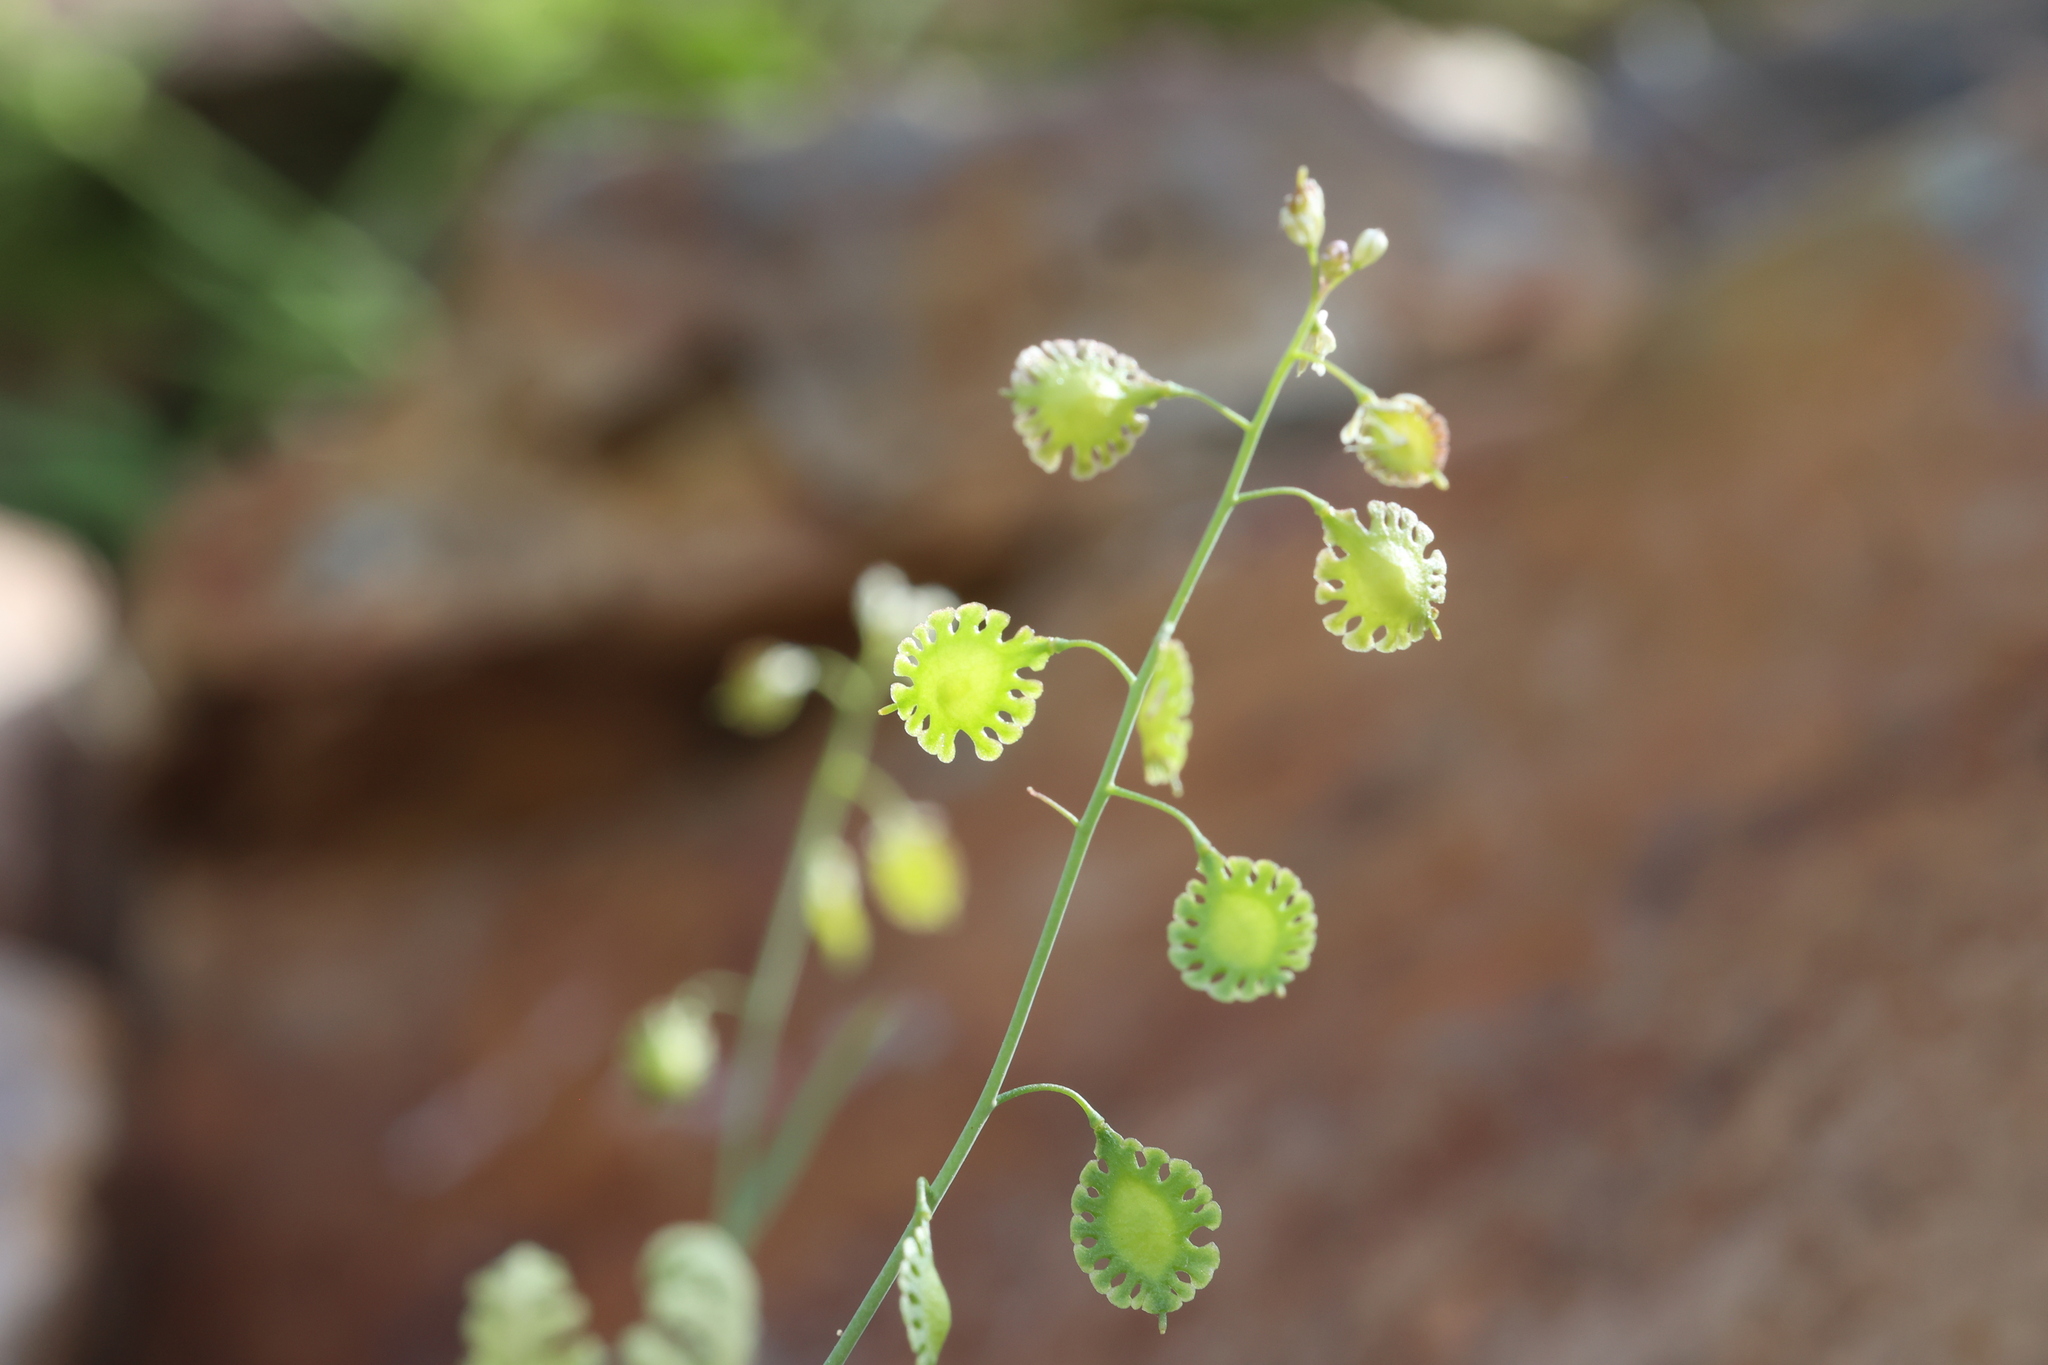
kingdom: Plantae
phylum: Tracheophyta
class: Magnoliopsida
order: Brassicales
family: Brassicaceae
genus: Thysanocarpus
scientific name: Thysanocarpus curvipes
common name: Sand fringepod
